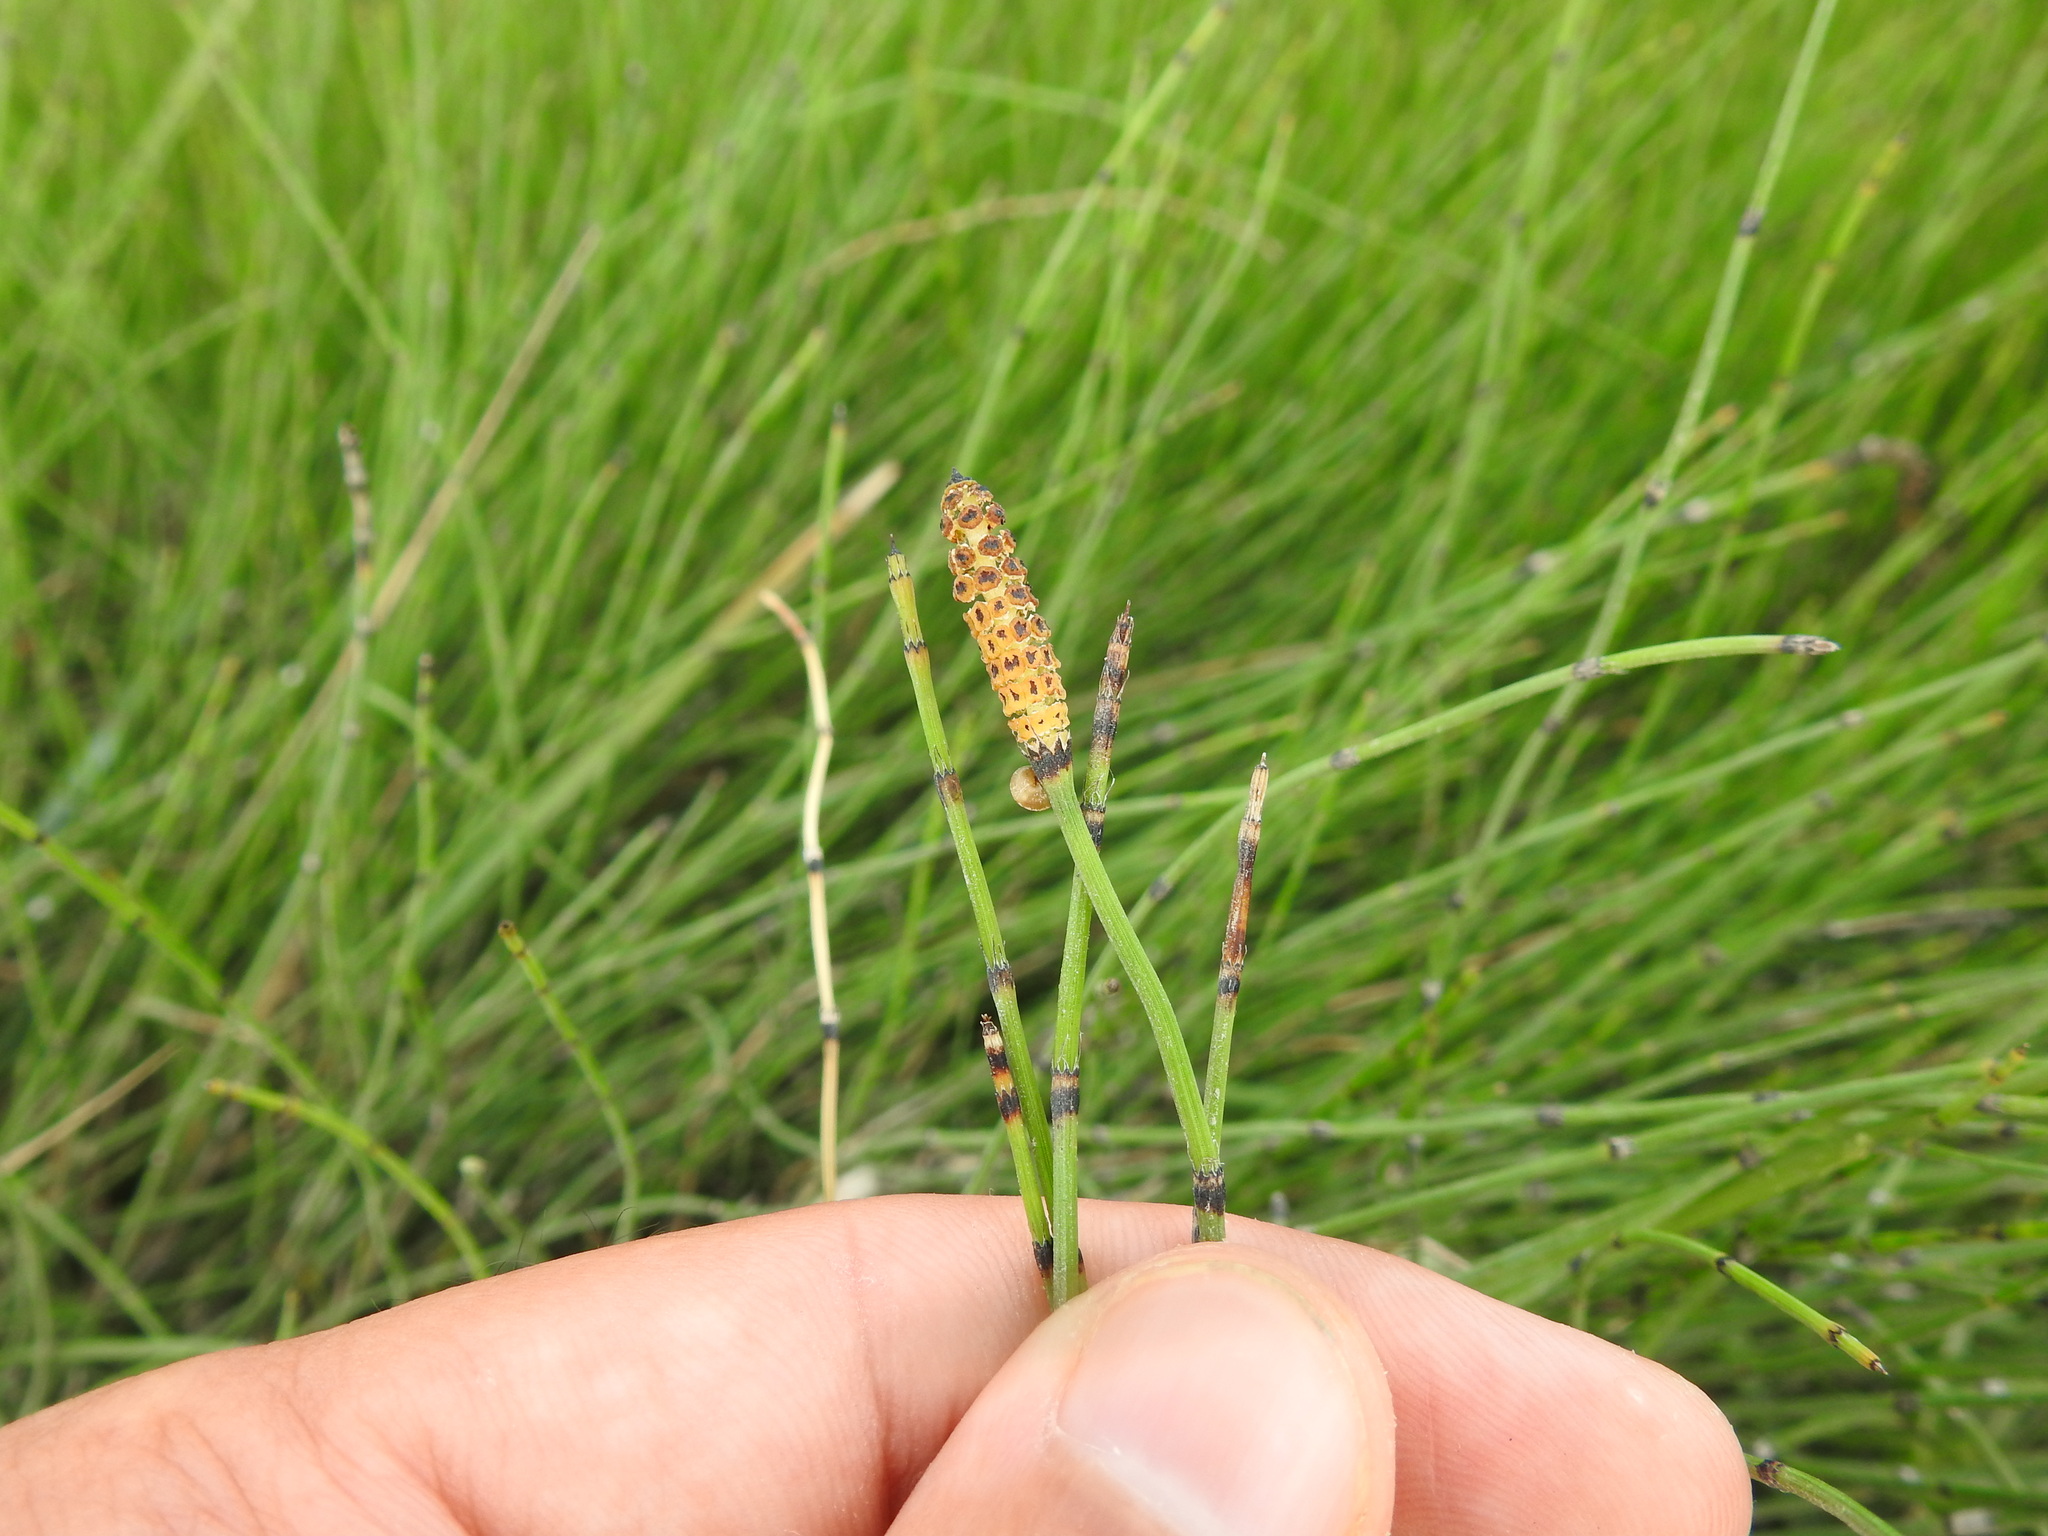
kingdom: Plantae
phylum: Tracheophyta
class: Polypodiopsida
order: Equisetales
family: Equisetaceae
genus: Equisetum
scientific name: Equisetum ramosissimum
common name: Branched horsetail
